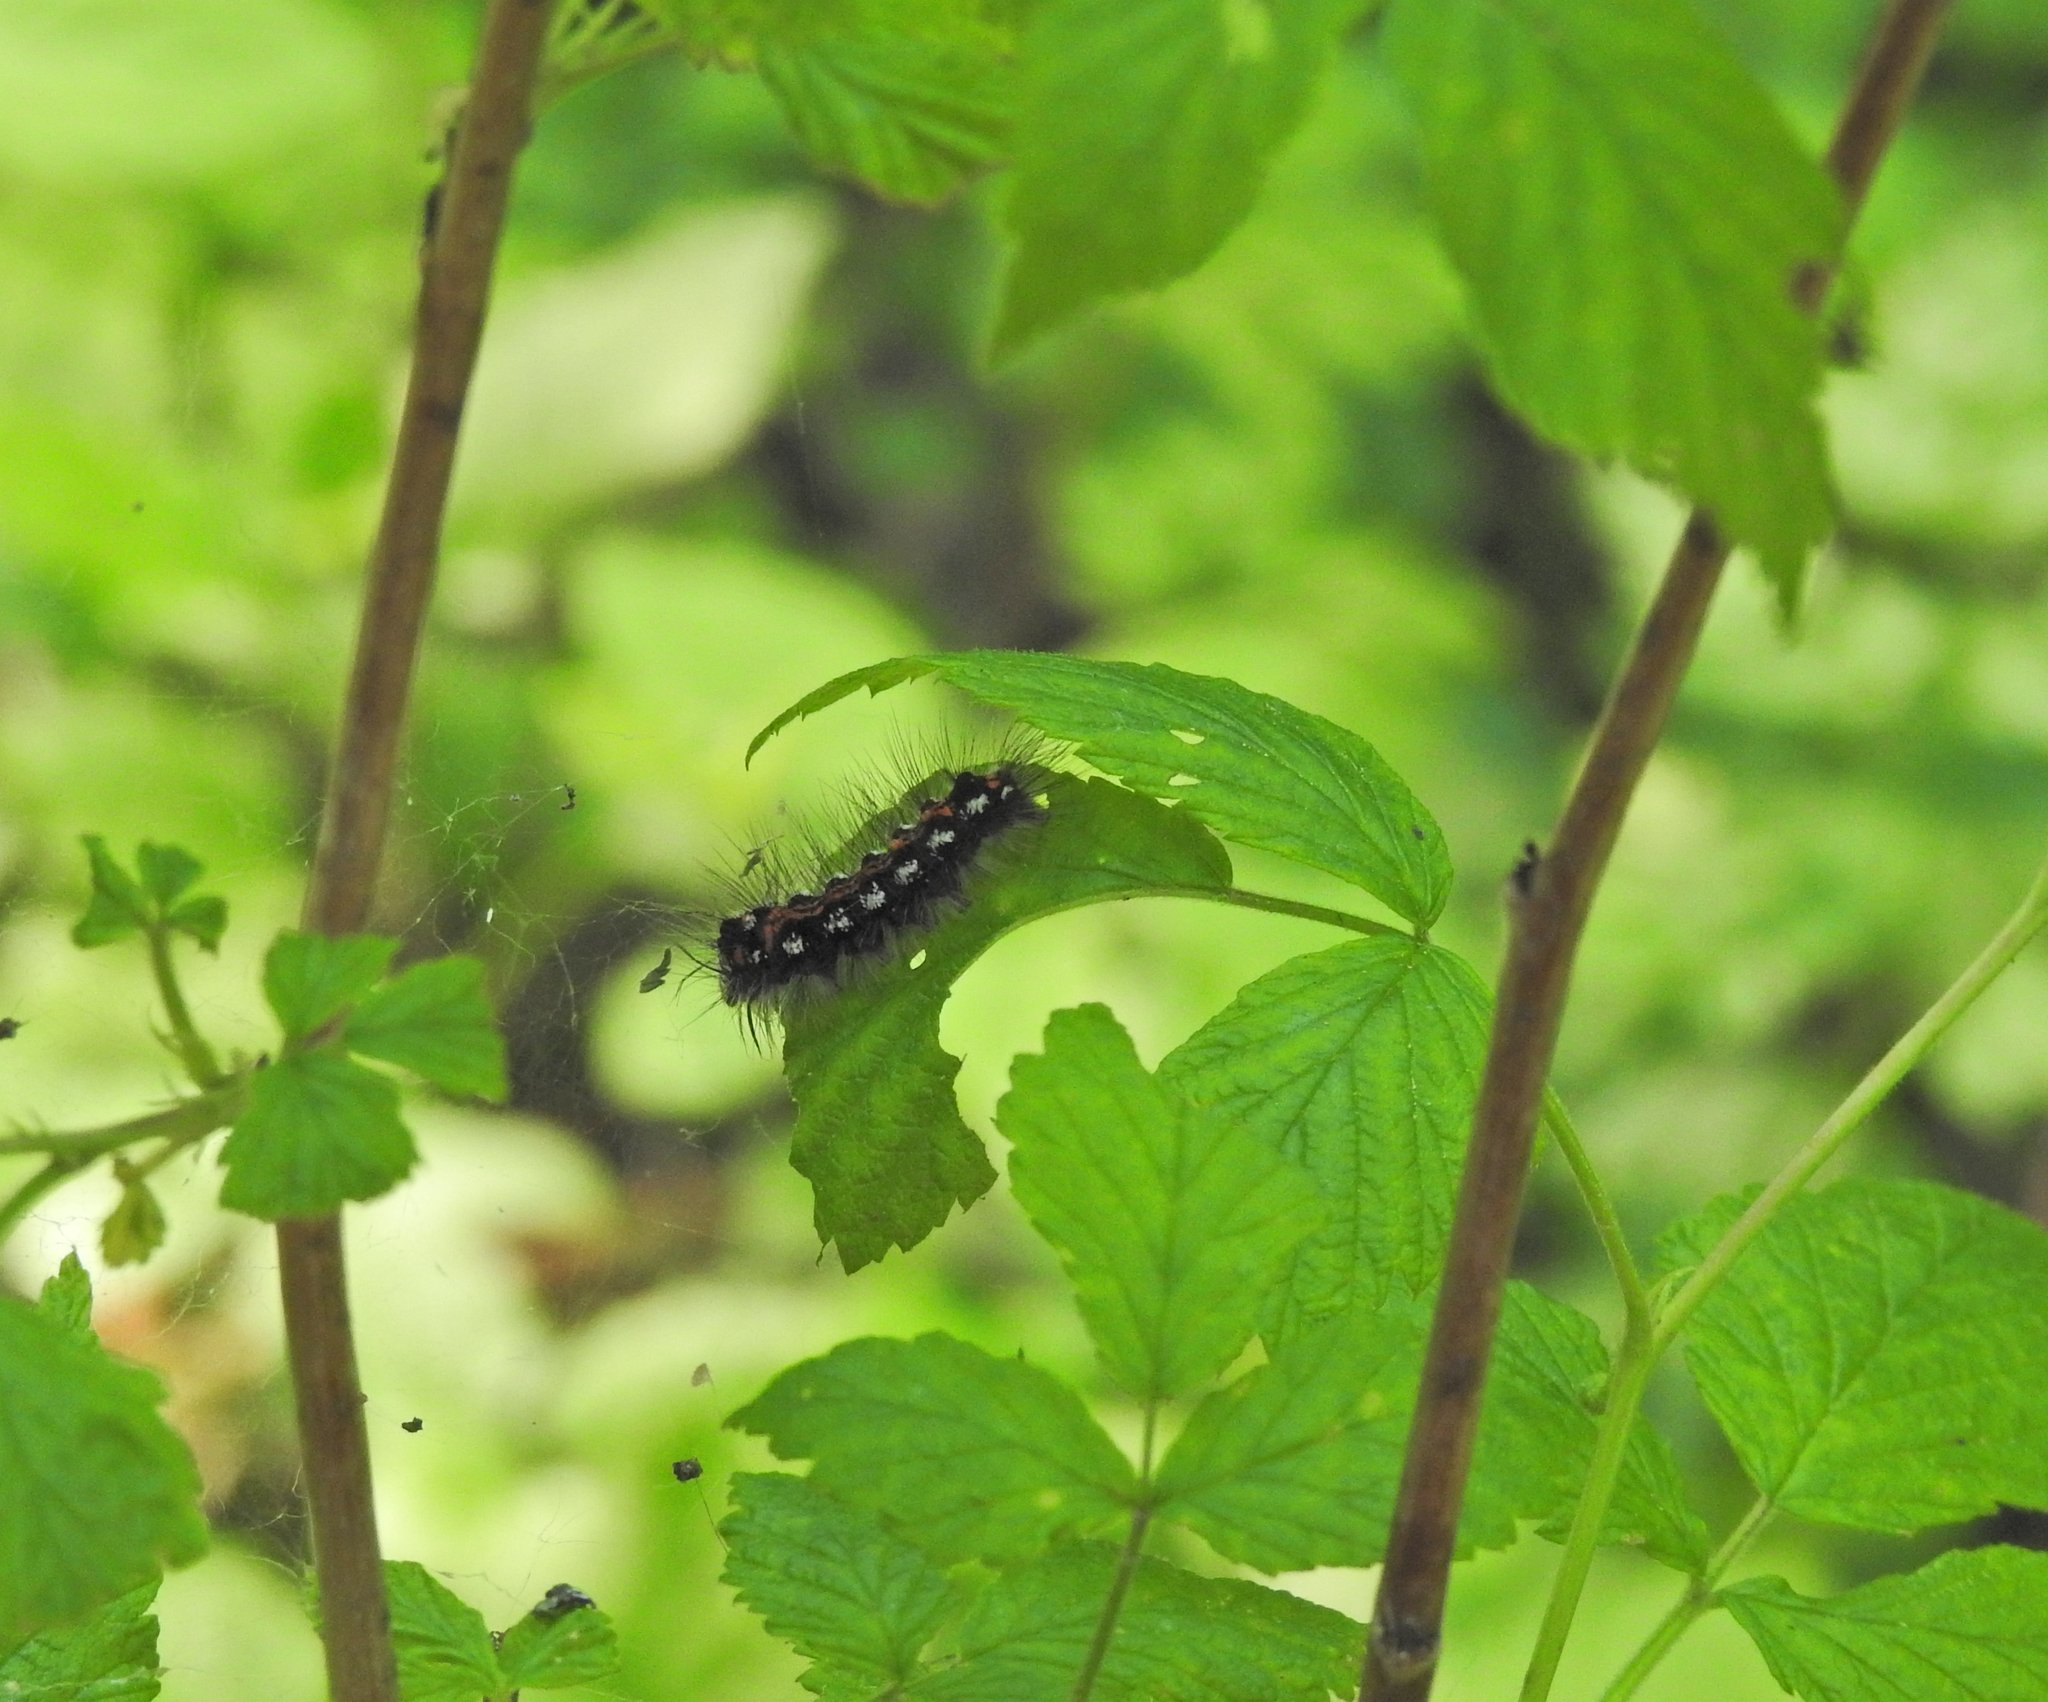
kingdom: Animalia
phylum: Arthropoda
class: Insecta
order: Lepidoptera
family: Erebidae
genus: Sphrageidus
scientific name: Sphrageidus similis
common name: Yellow-tail
